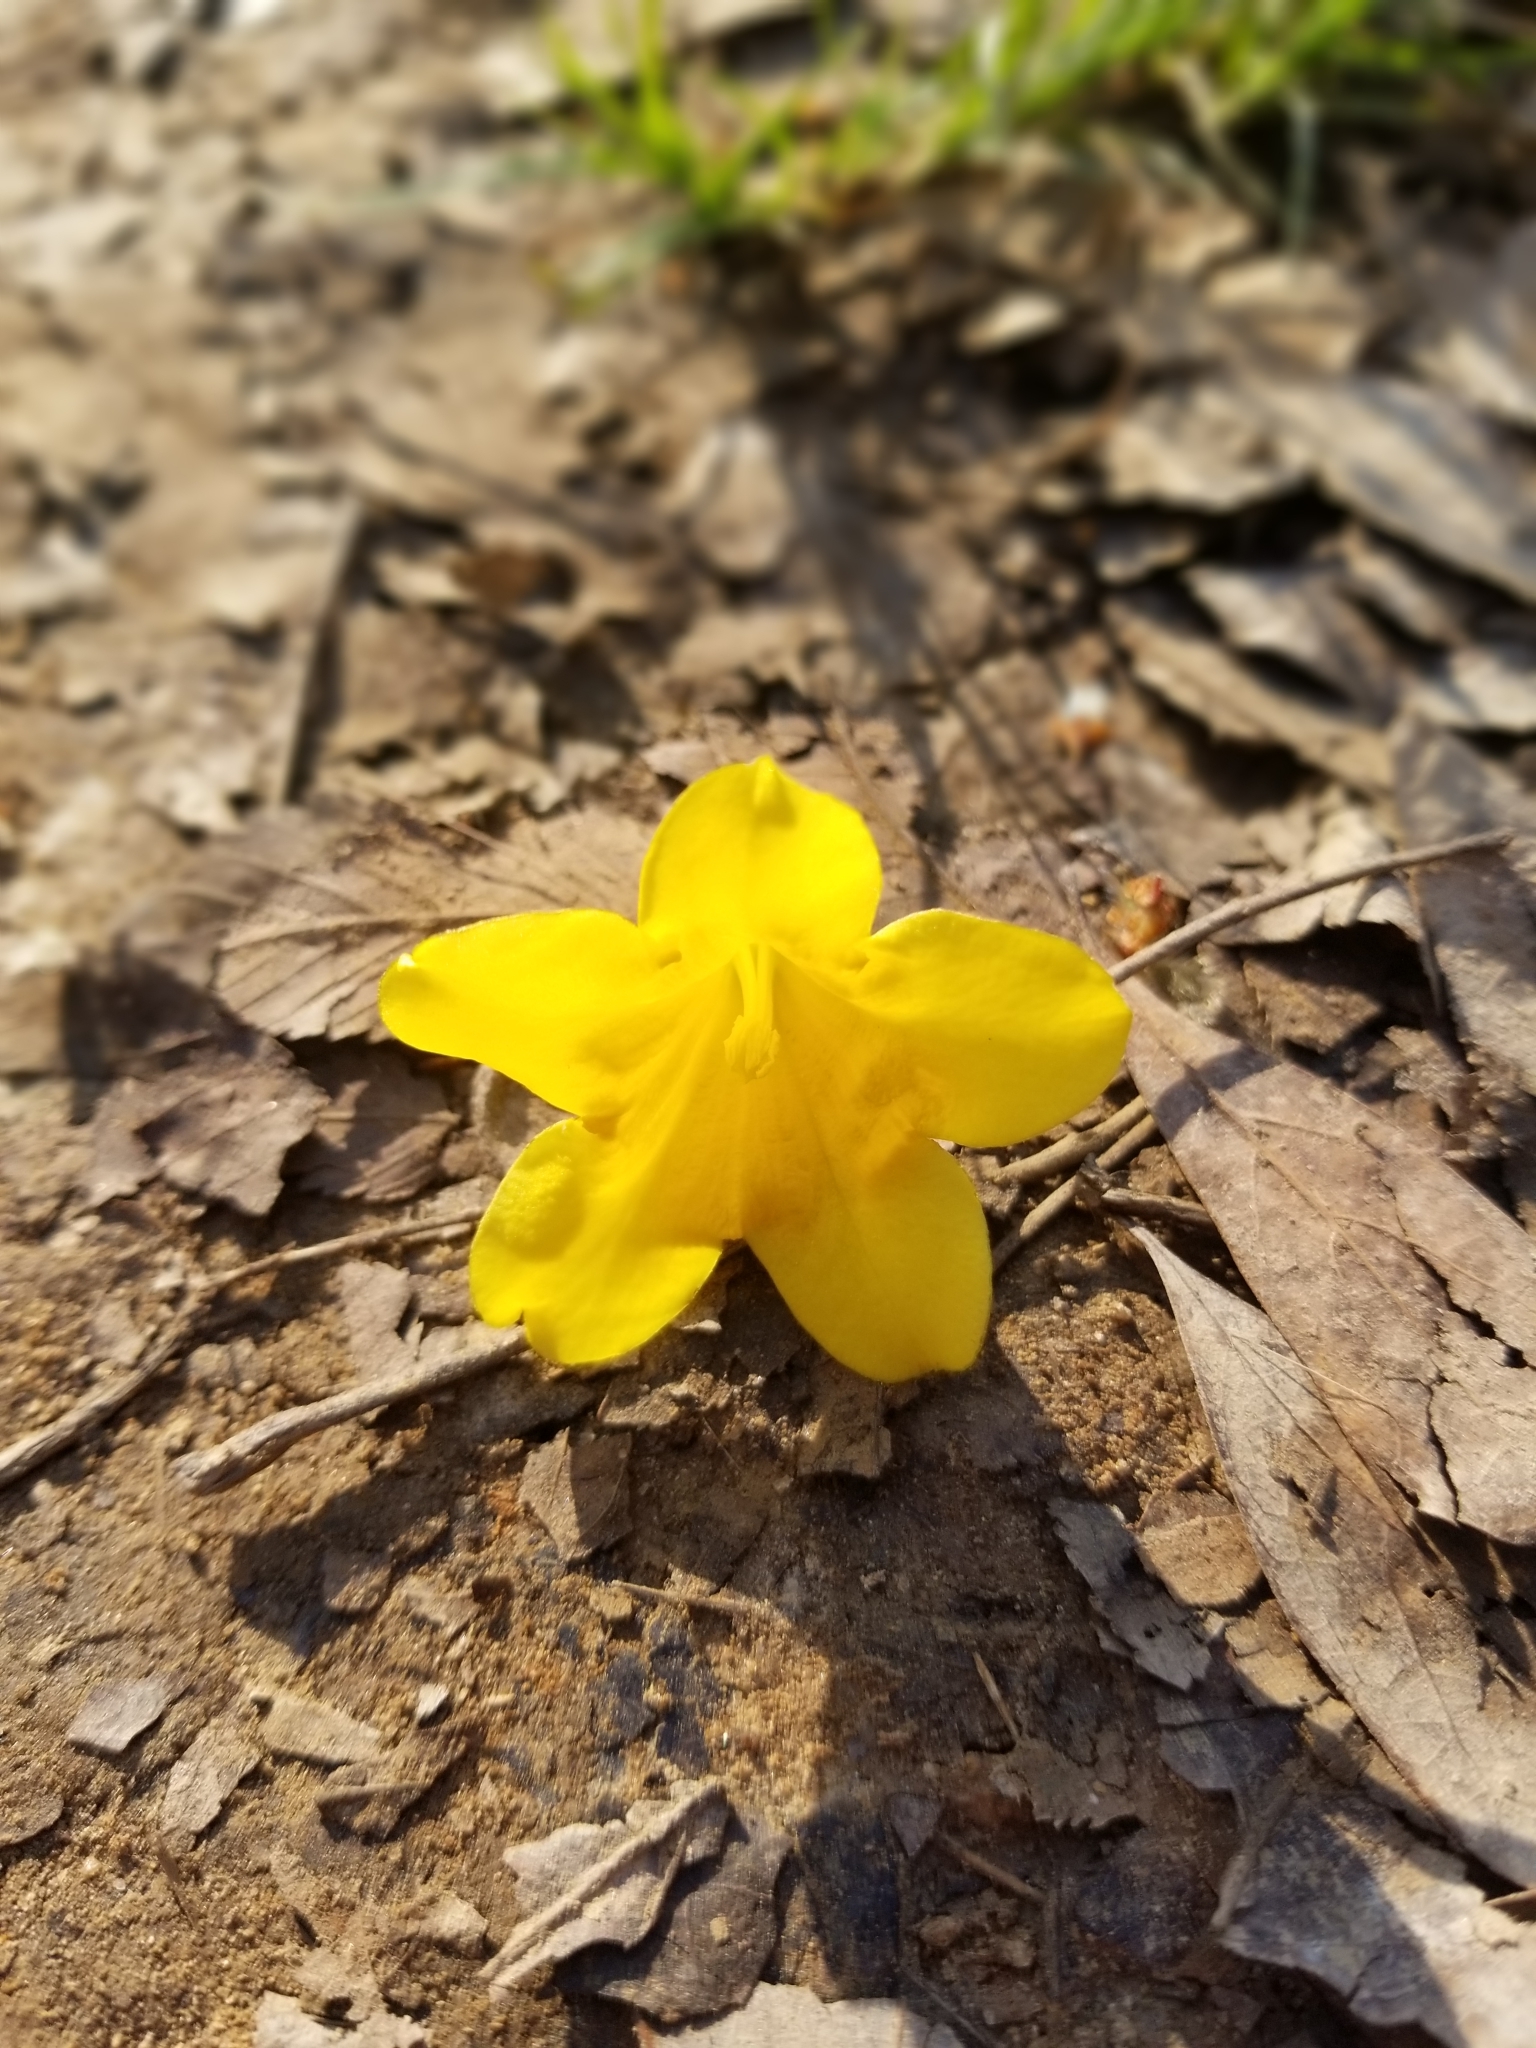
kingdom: Plantae
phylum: Tracheophyta
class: Magnoliopsida
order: Gentianales
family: Gelsemiaceae
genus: Gelsemium
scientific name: Gelsemium sempervirens
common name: Carolina-jasmine
